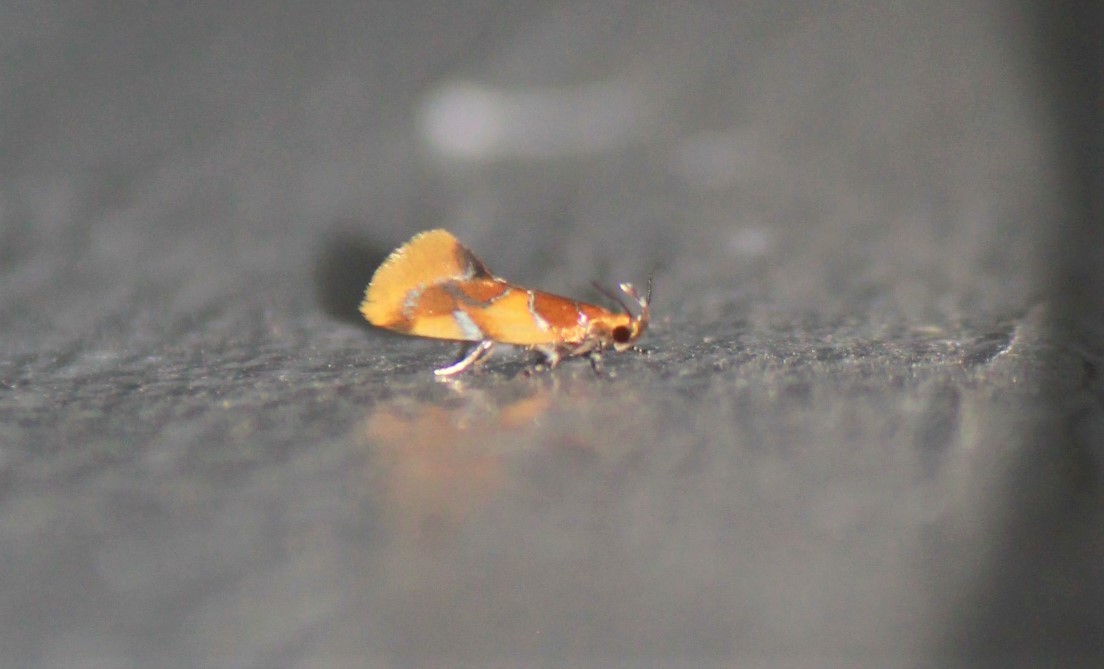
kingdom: Animalia
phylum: Arthropoda
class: Insecta
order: Lepidoptera
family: Oecophoridae
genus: Callima
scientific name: Callima argenticinctella
